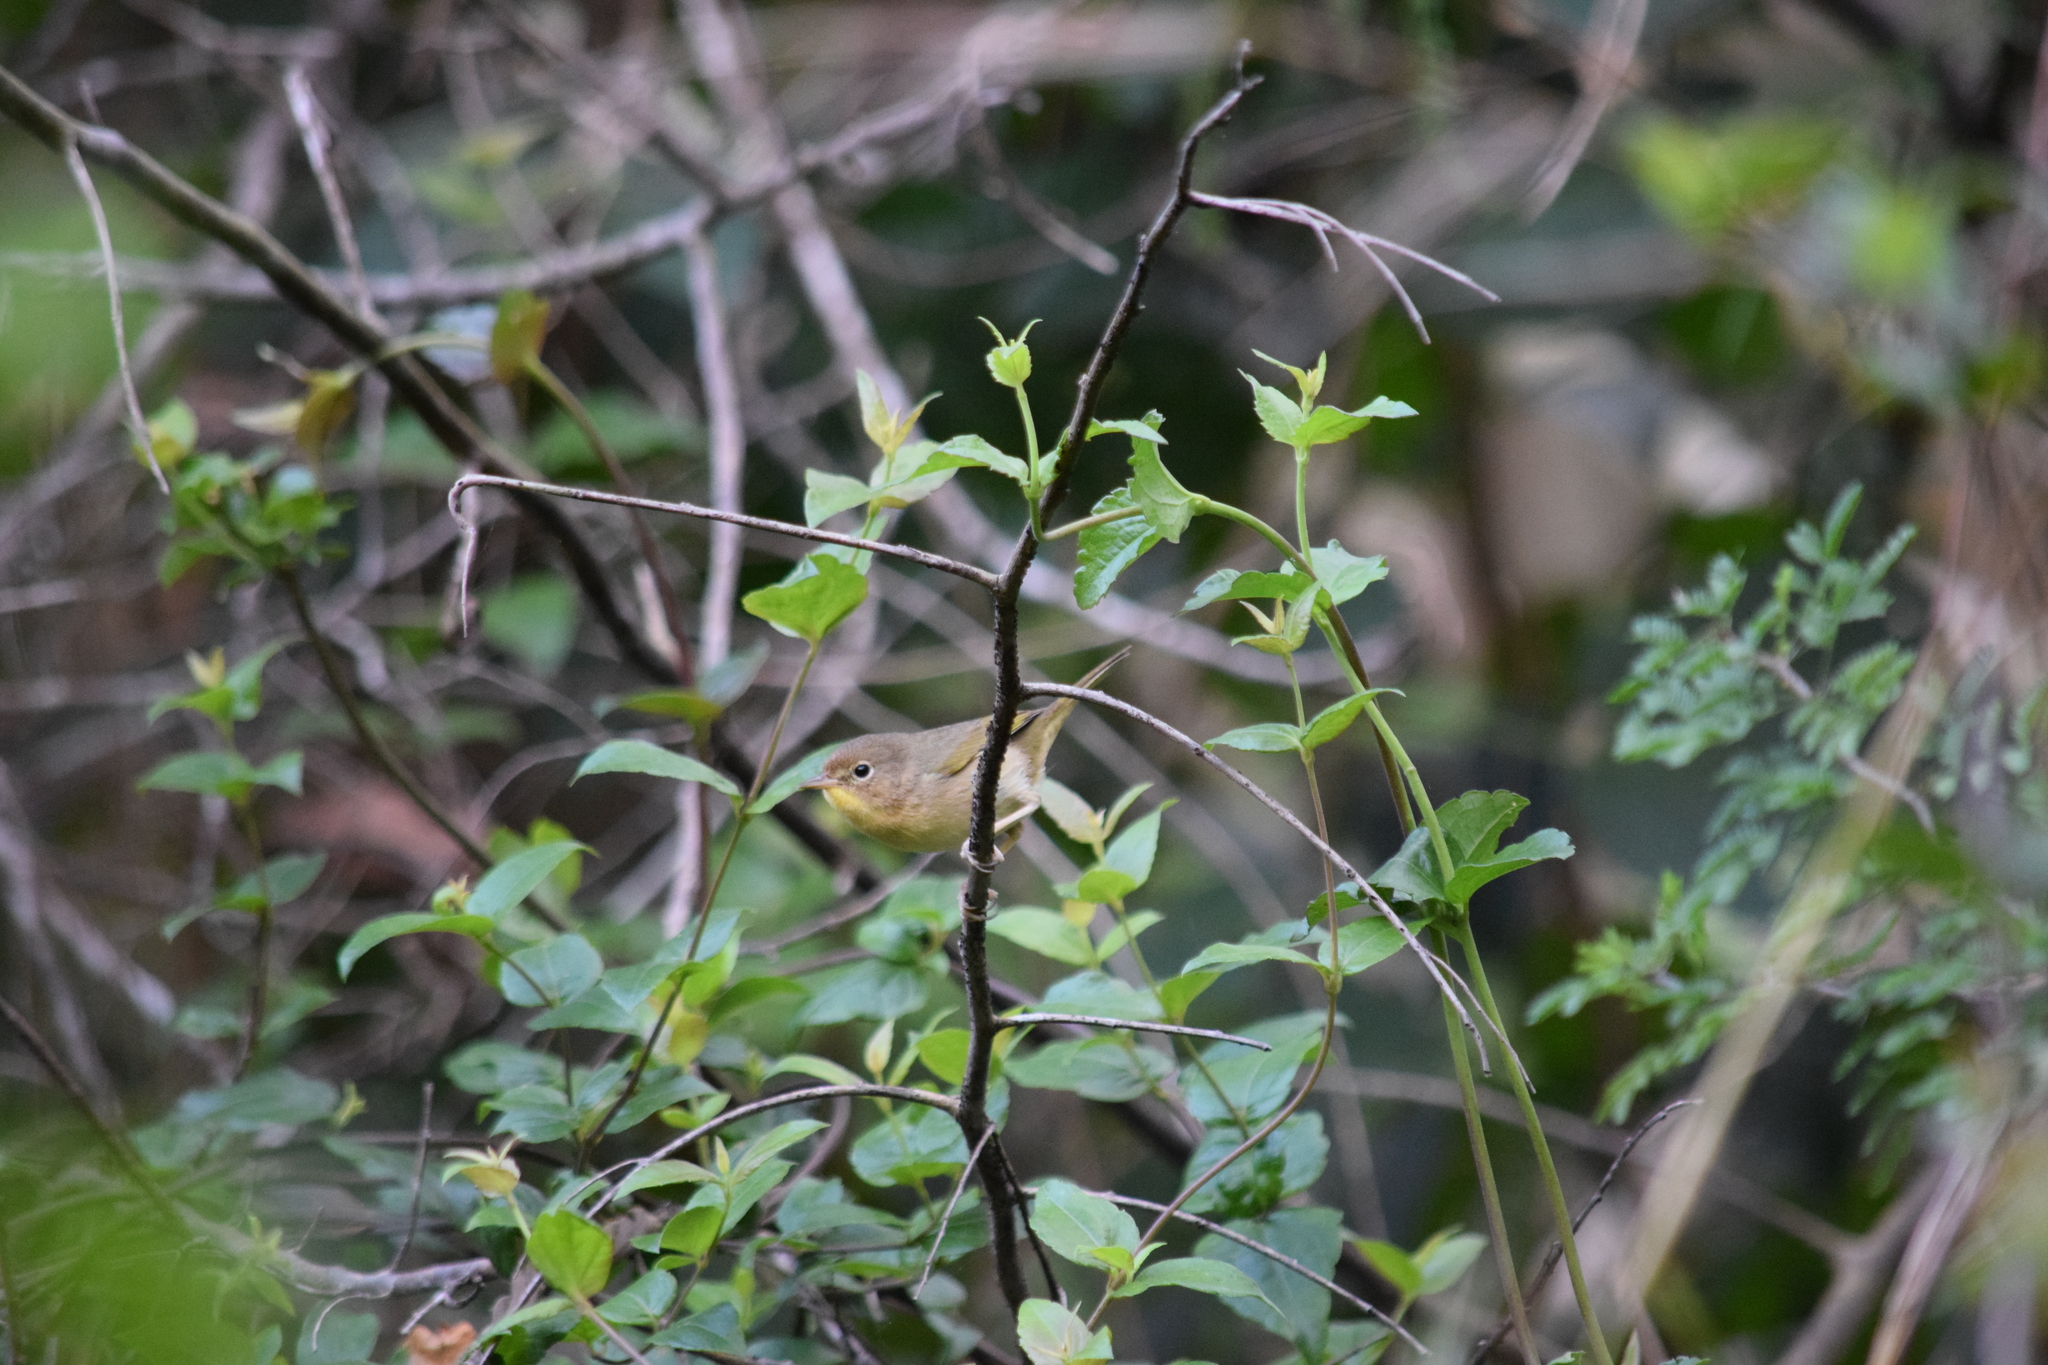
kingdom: Animalia
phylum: Chordata
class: Aves
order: Passeriformes
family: Parulidae
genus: Geothlypis
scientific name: Geothlypis trichas
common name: Common yellowthroat
